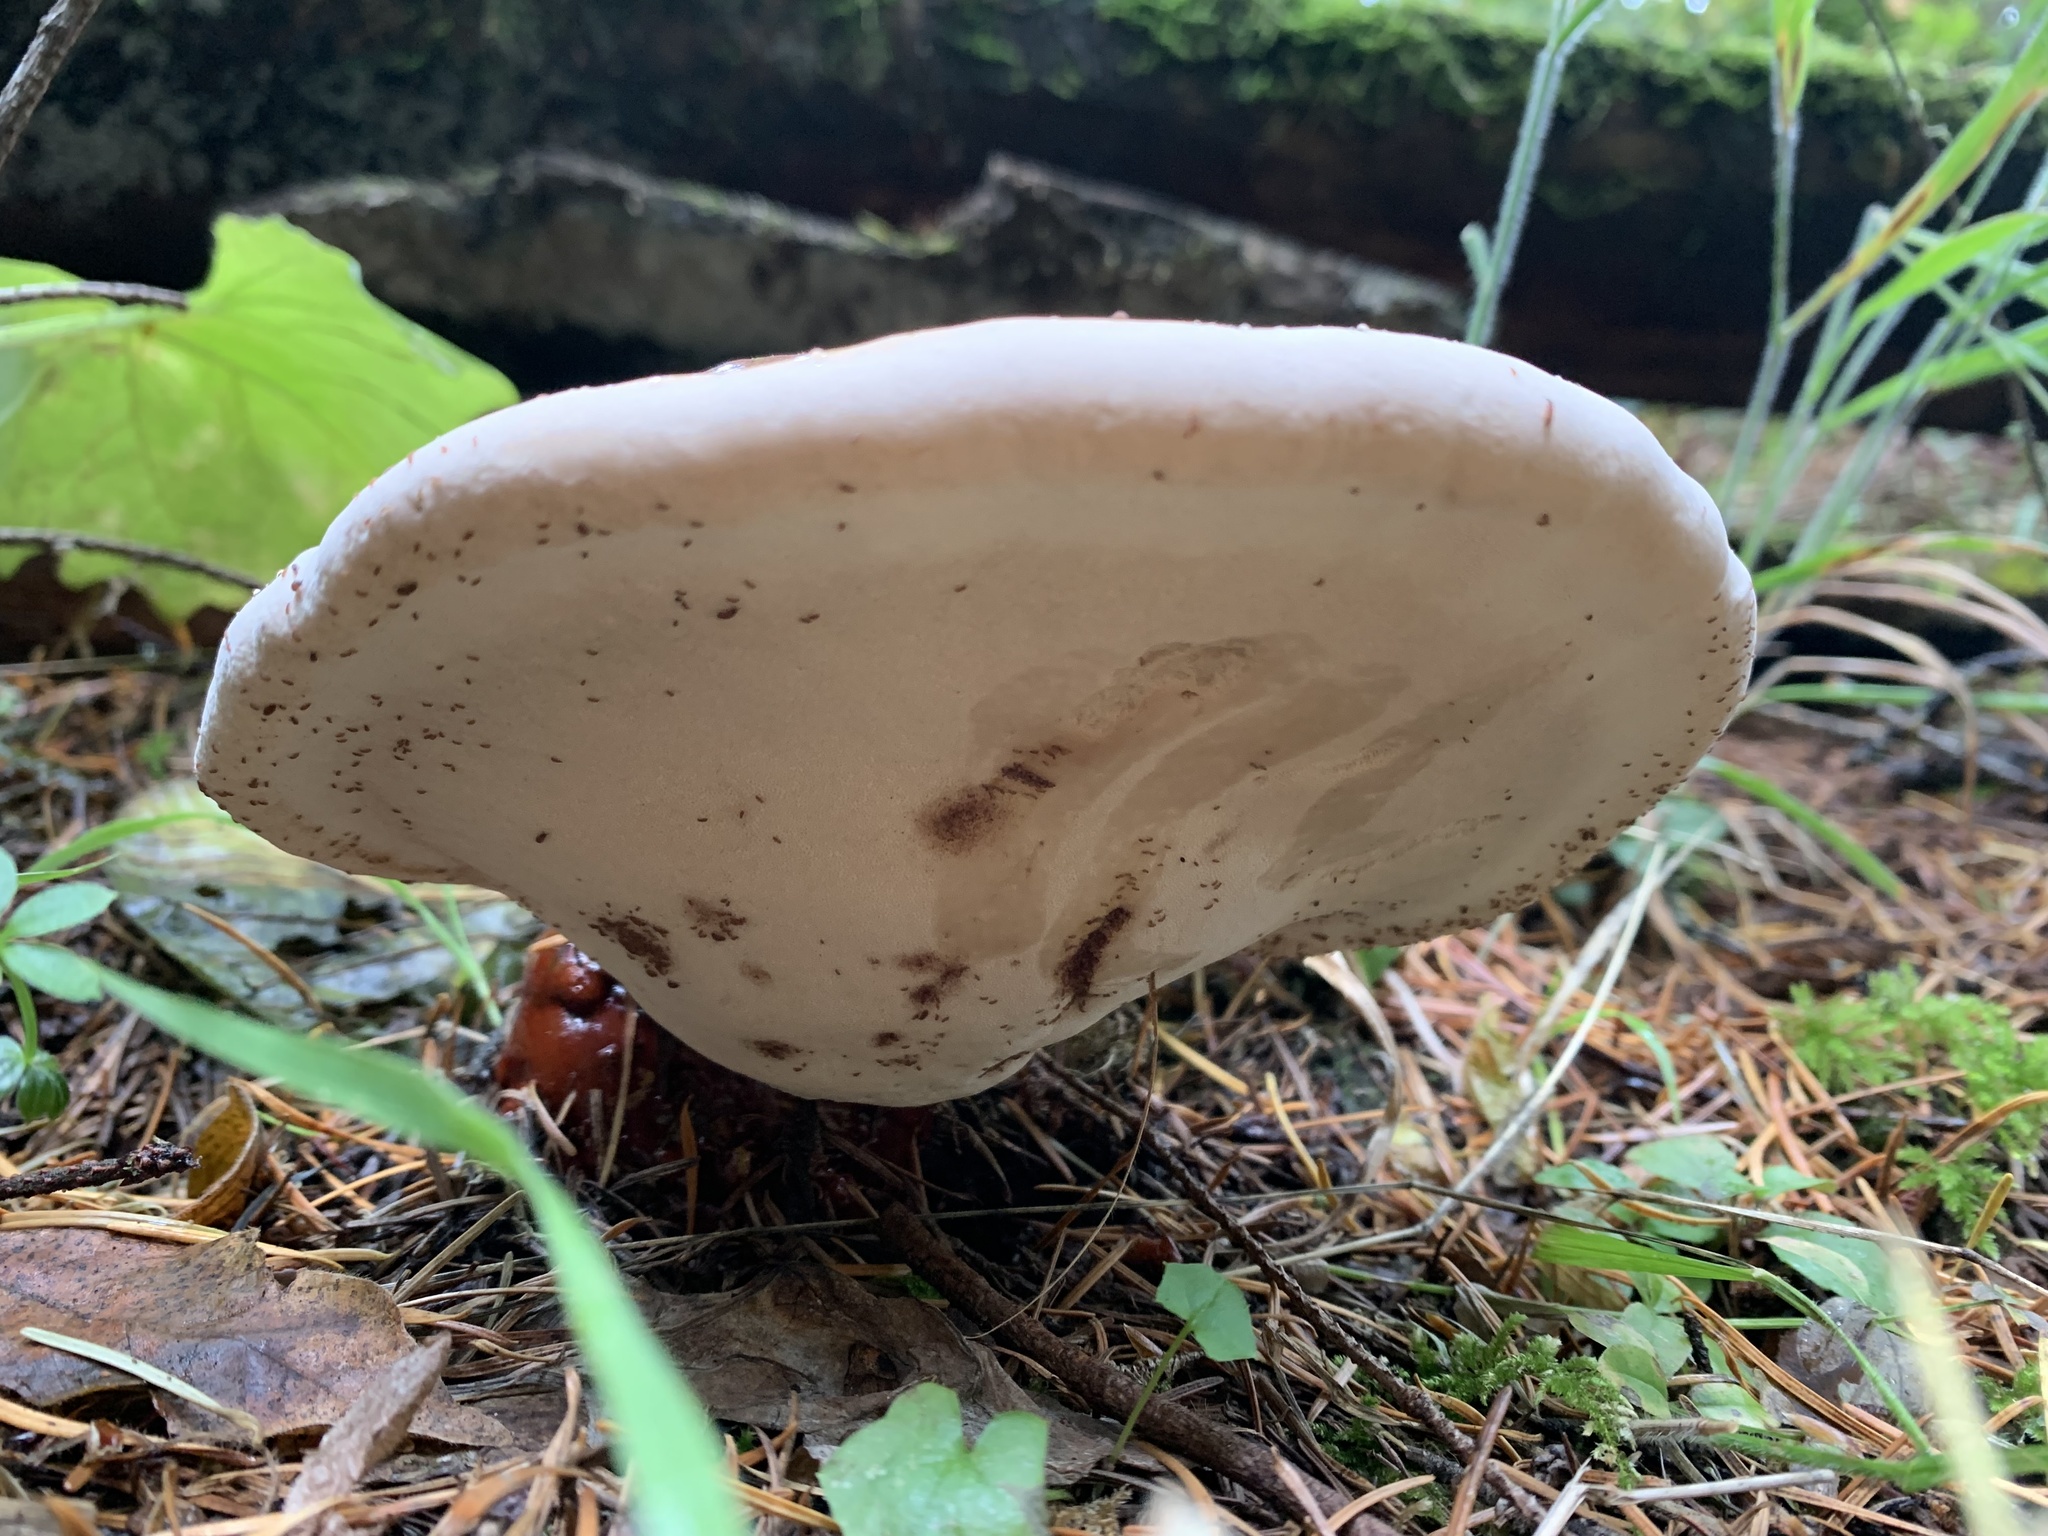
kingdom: Fungi
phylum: Basidiomycota
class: Agaricomycetes
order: Polyporales
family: Polyporaceae
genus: Ganoderma
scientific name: Ganoderma oregonense
